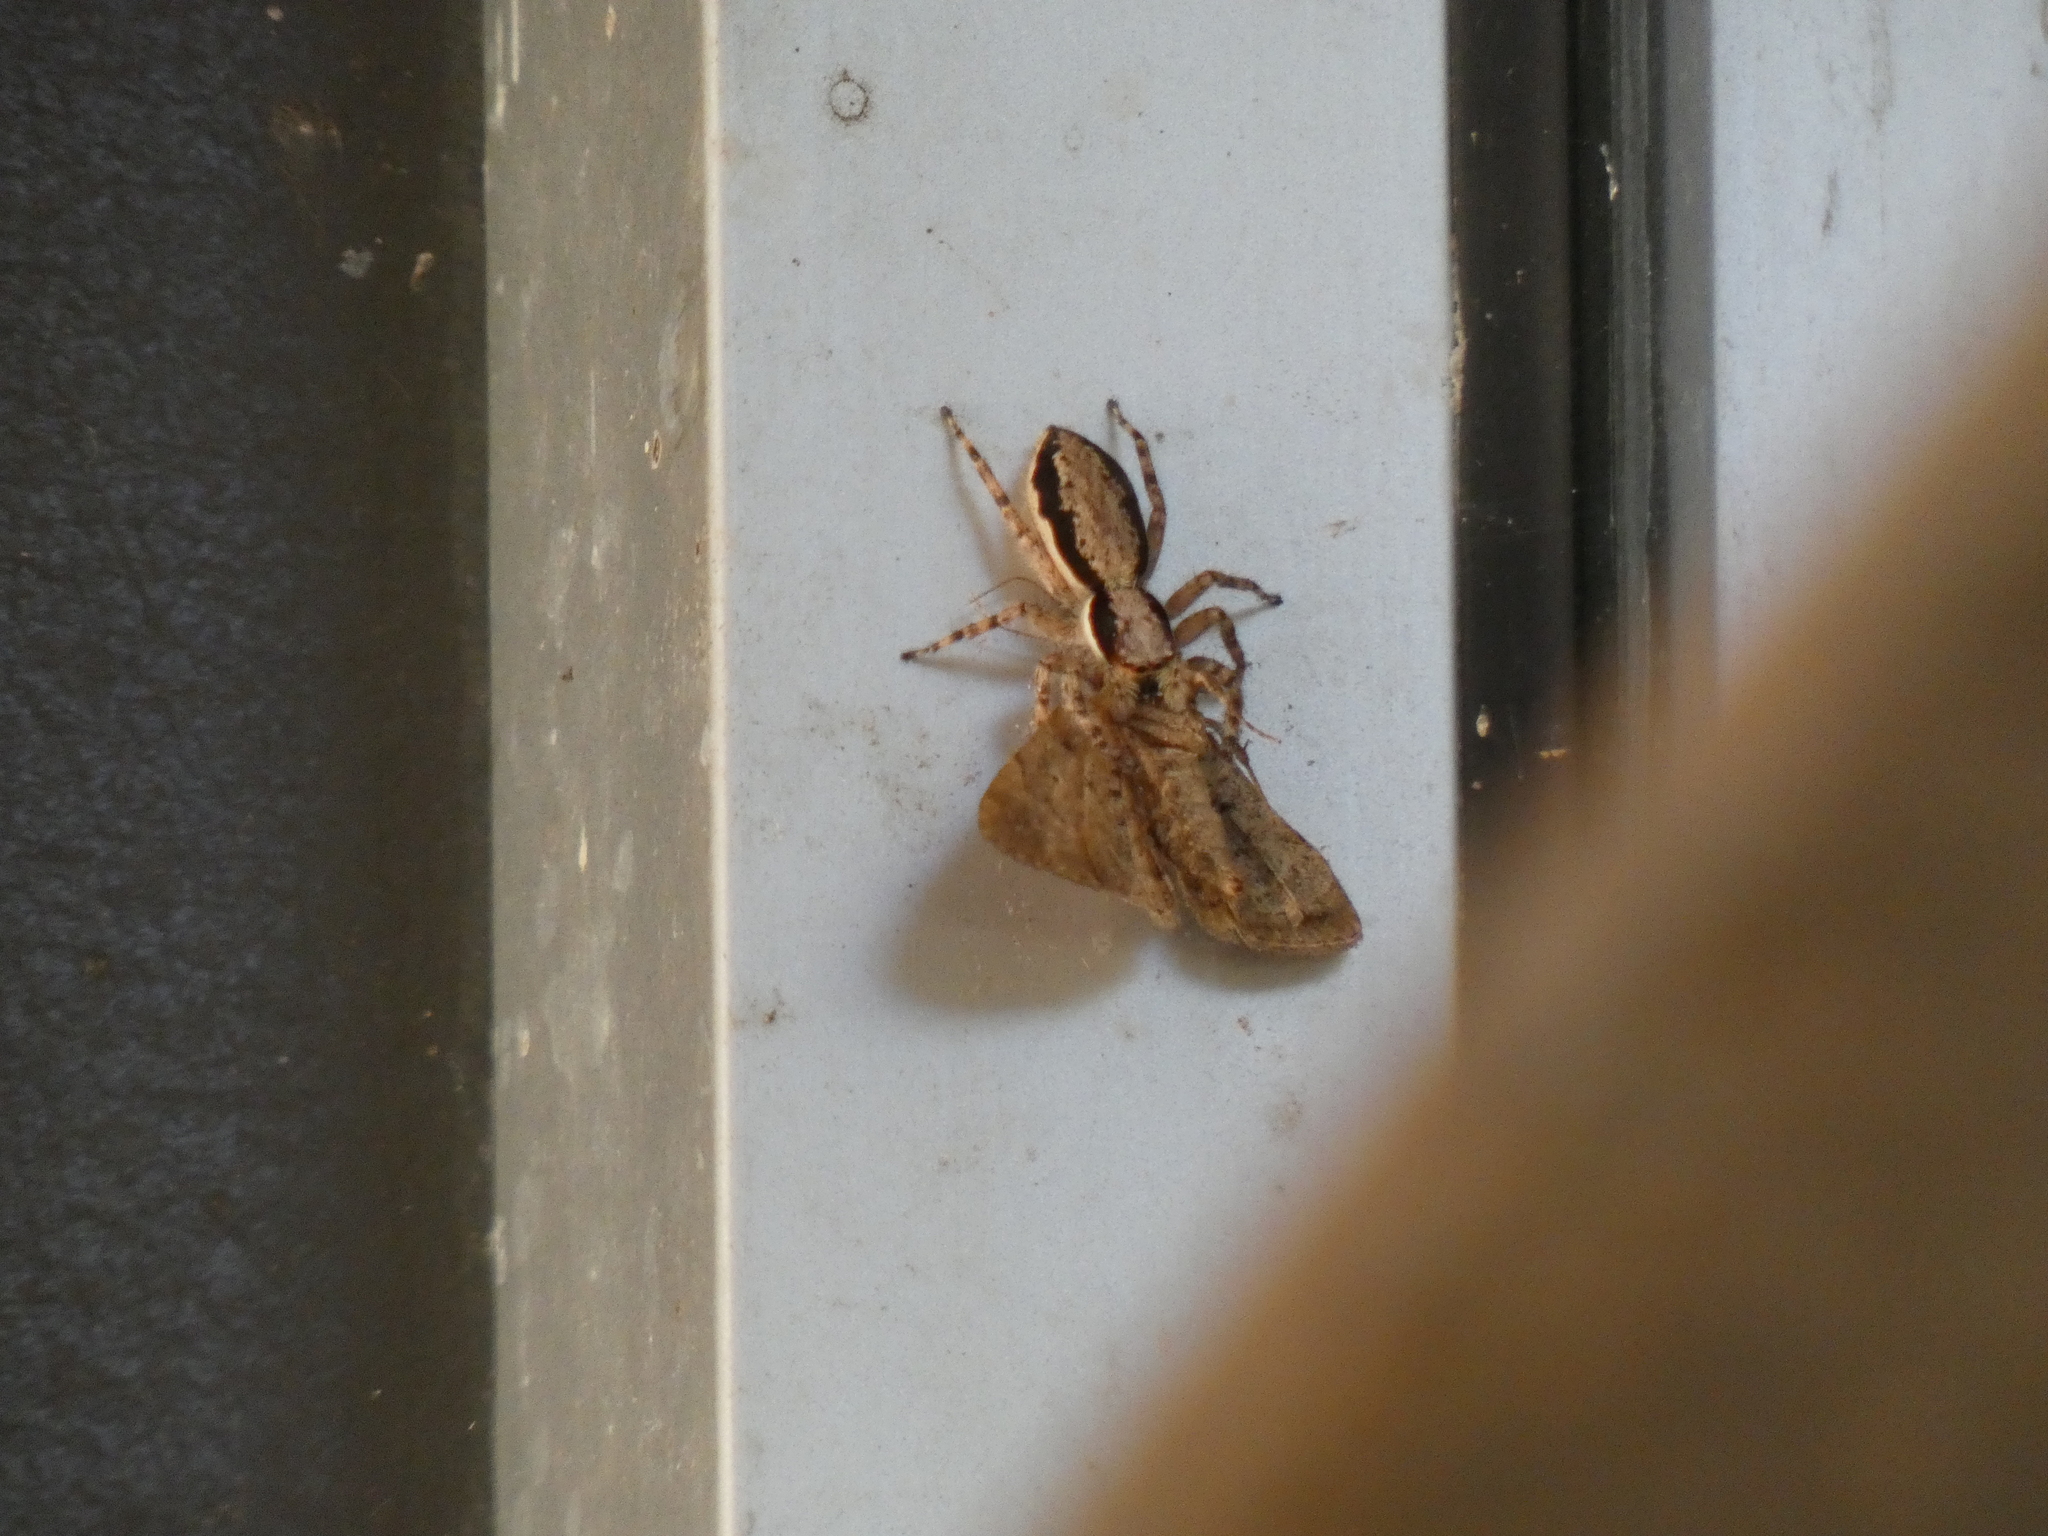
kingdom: Animalia
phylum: Arthropoda
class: Arachnida
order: Araneae
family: Salticidae
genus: Menemerus
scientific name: Menemerus bivittatus
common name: Gray wall jumper
